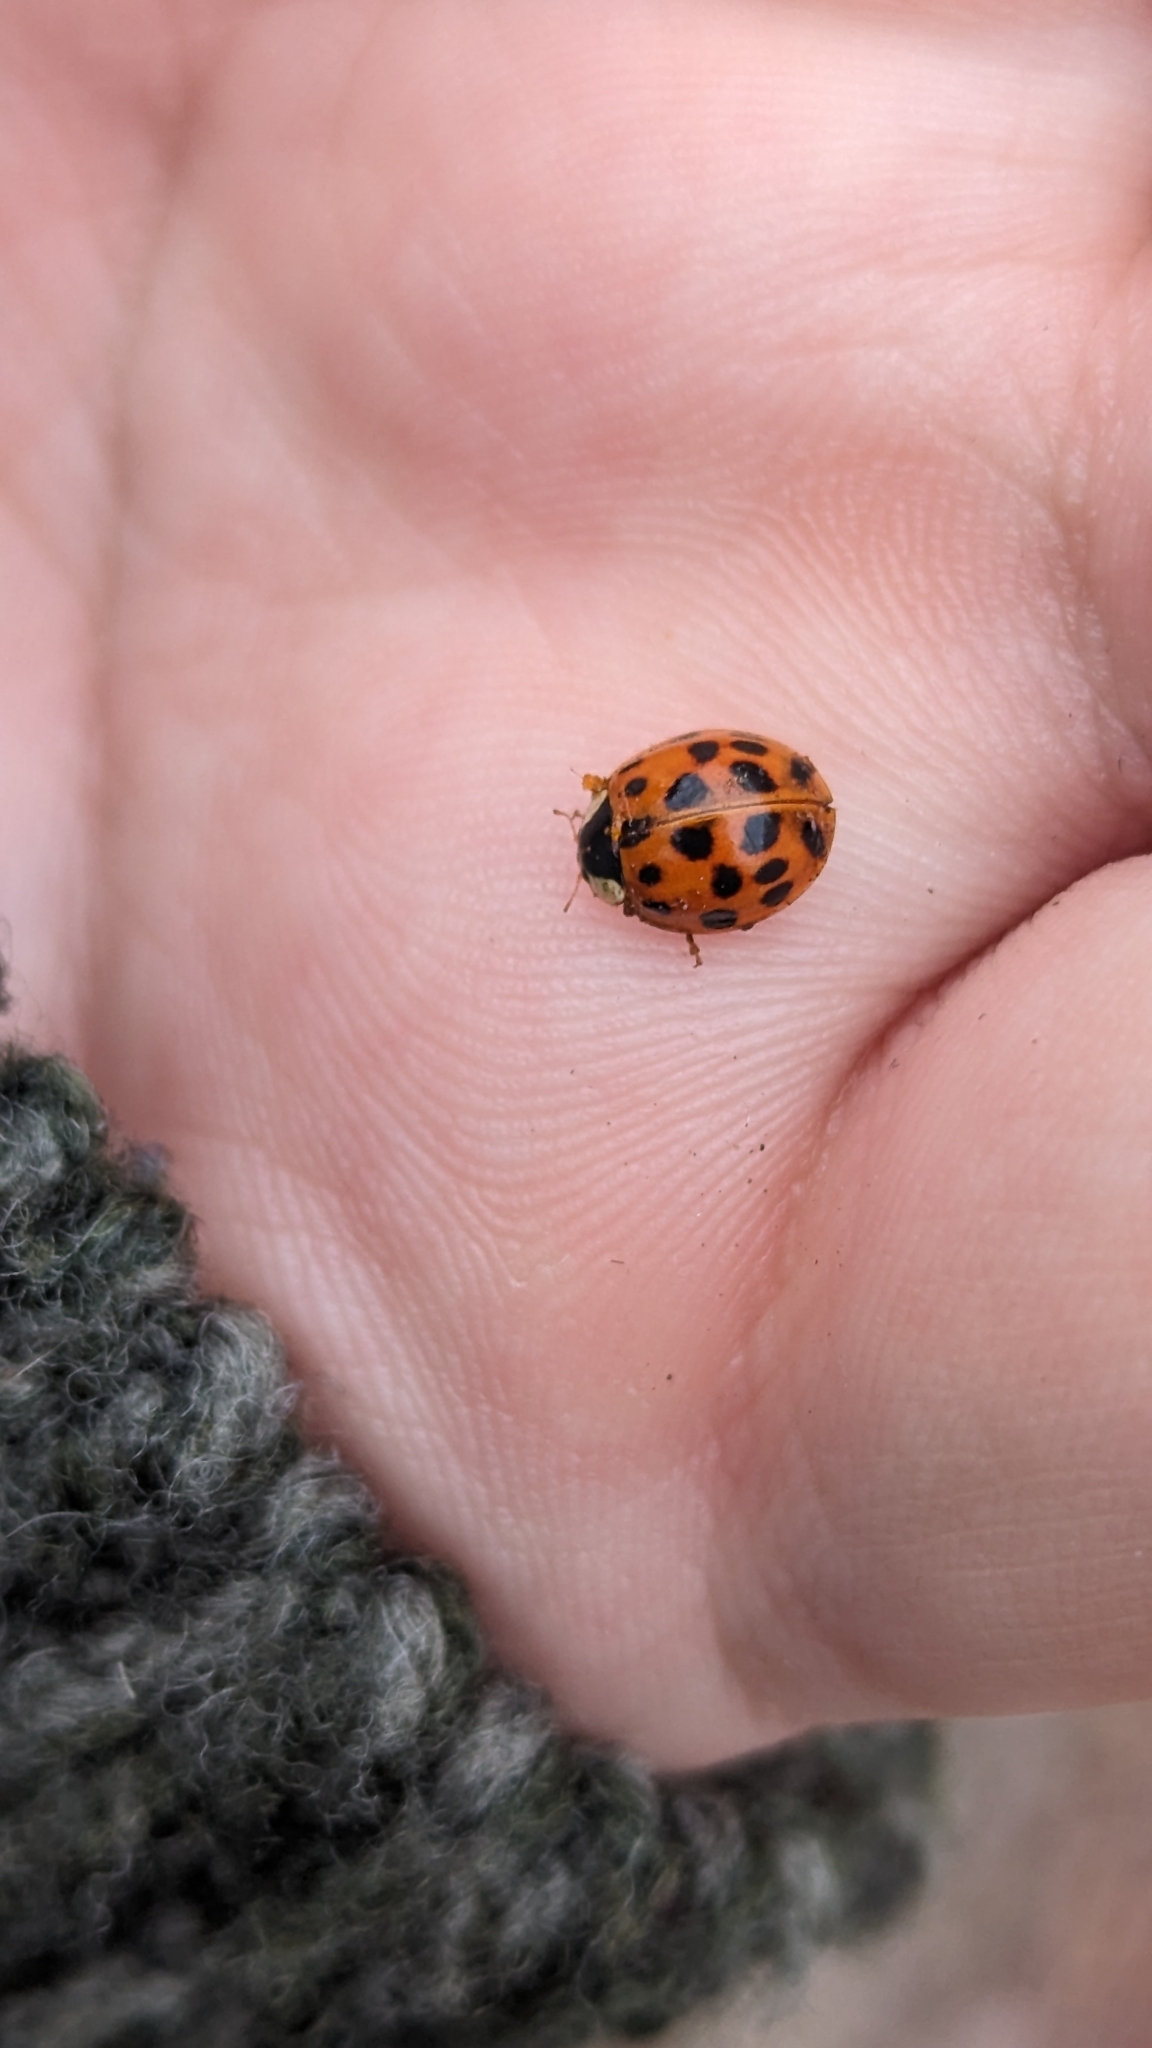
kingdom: Animalia
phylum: Arthropoda
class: Insecta
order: Coleoptera
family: Coccinellidae
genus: Harmonia
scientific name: Harmonia axyridis
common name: Harlequin ladybird
